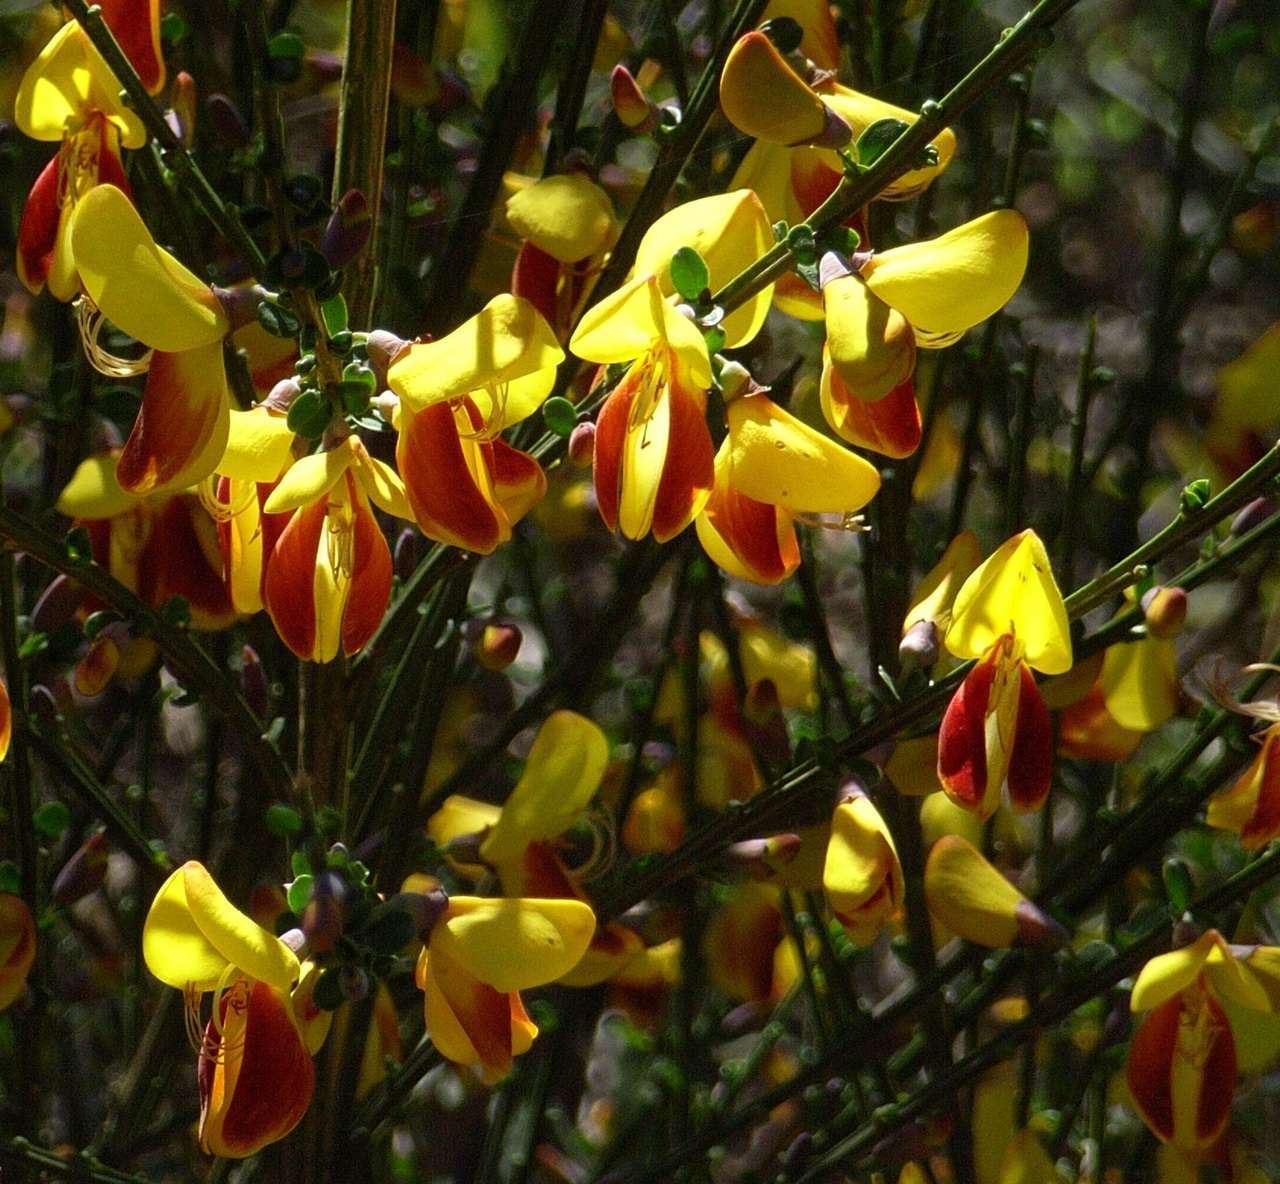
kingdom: Plantae
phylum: Tracheophyta
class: Magnoliopsida
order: Fabales
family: Fabaceae
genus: Cytisus
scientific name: Cytisus scoparius
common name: Scotch broom
